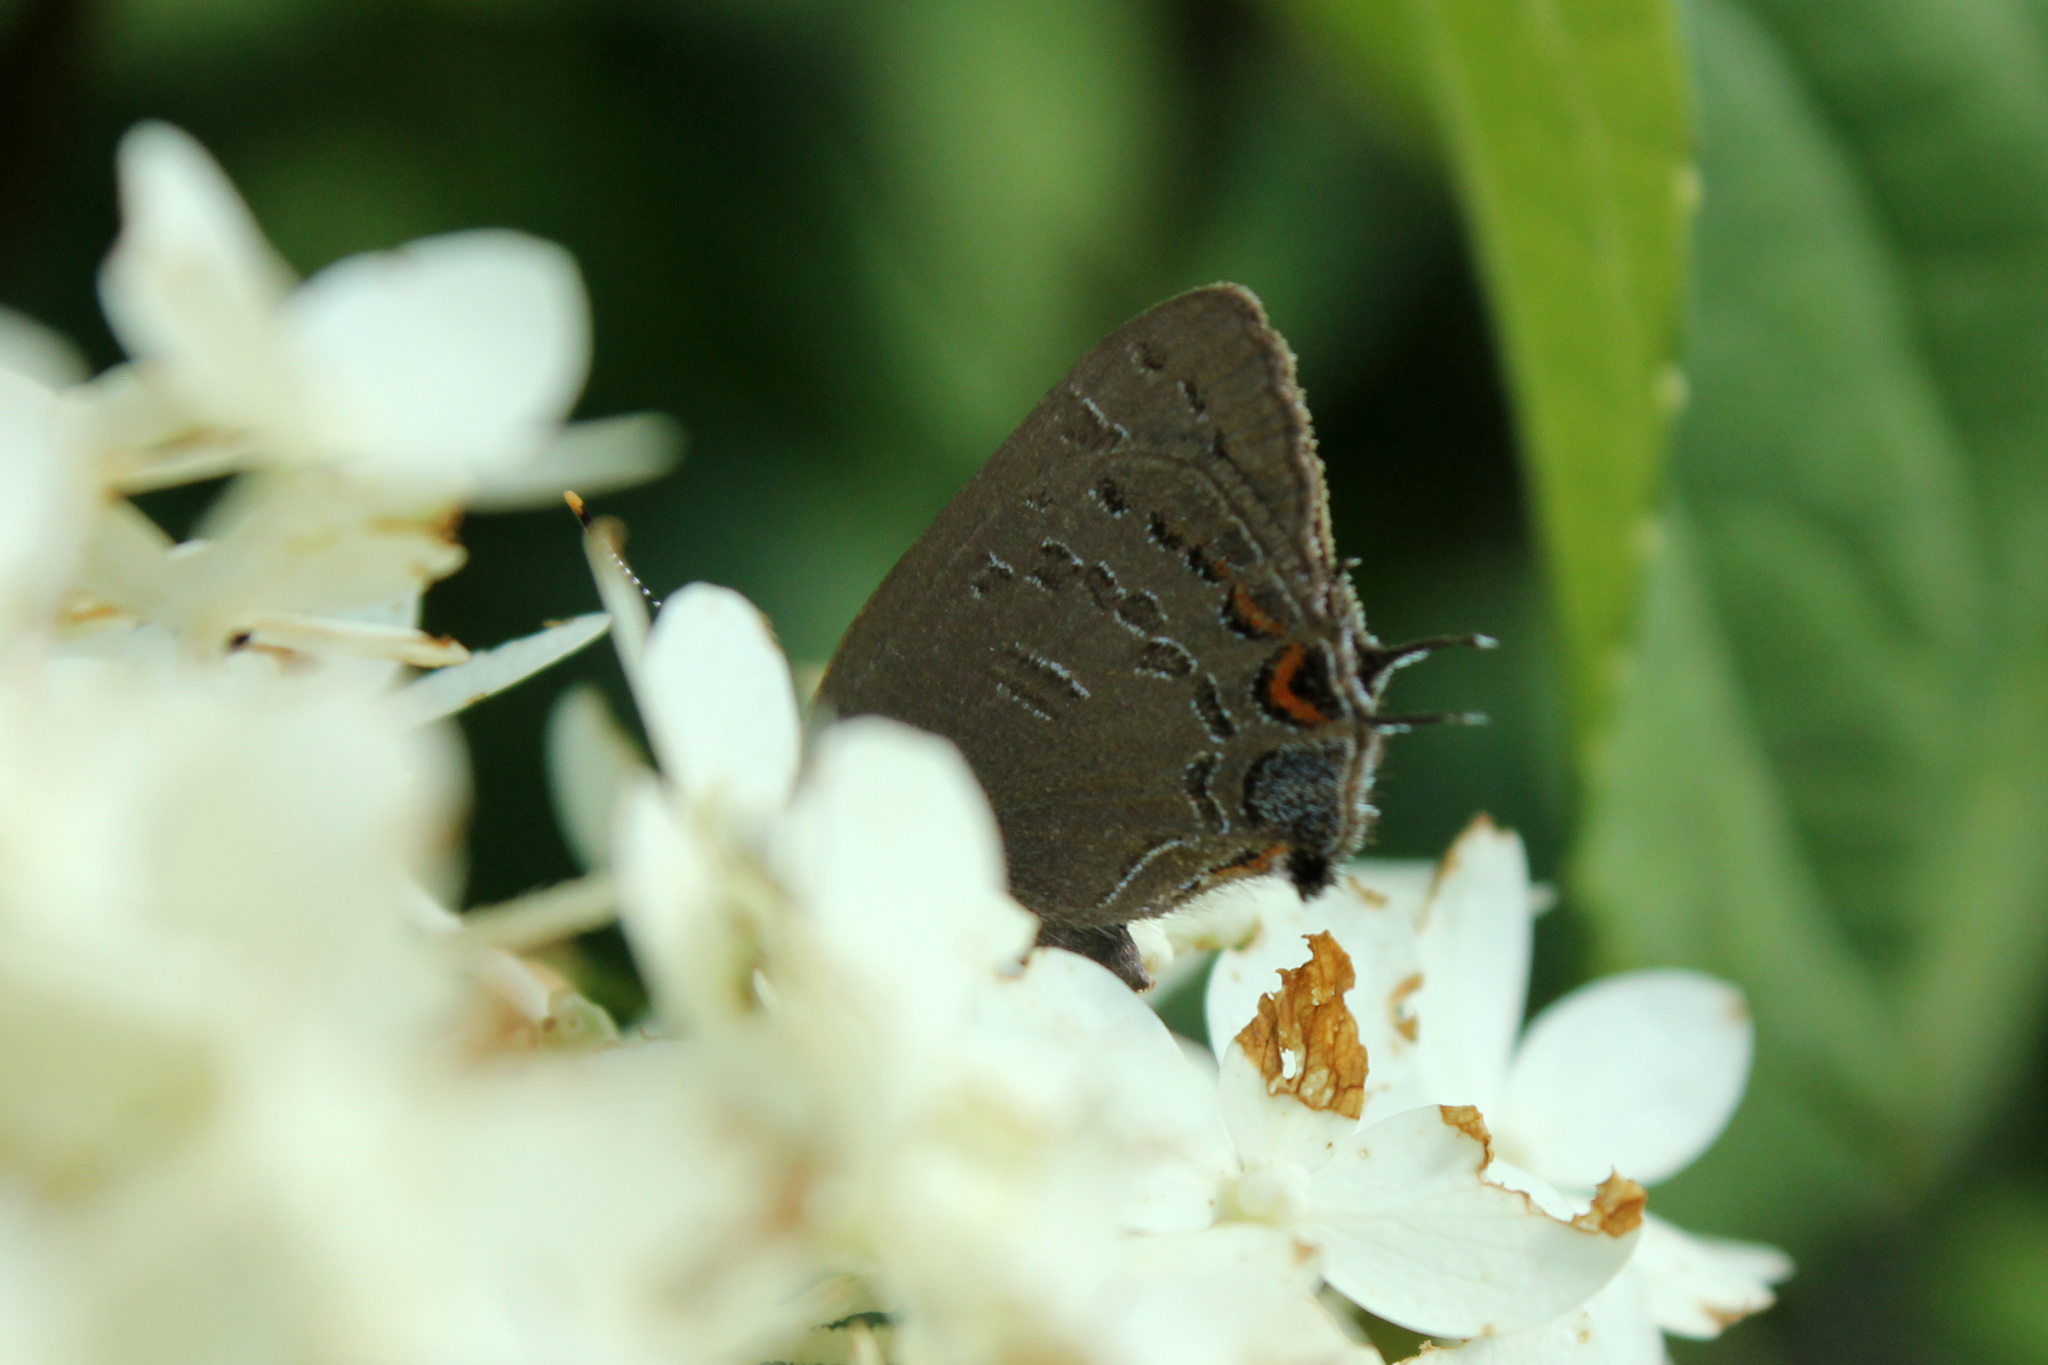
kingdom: Animalia
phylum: Arthropoda
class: Insecta
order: Lepidoptera
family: Lycaenidae
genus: Satyrium
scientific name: Satyrium calanus
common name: Banded hairstreak
